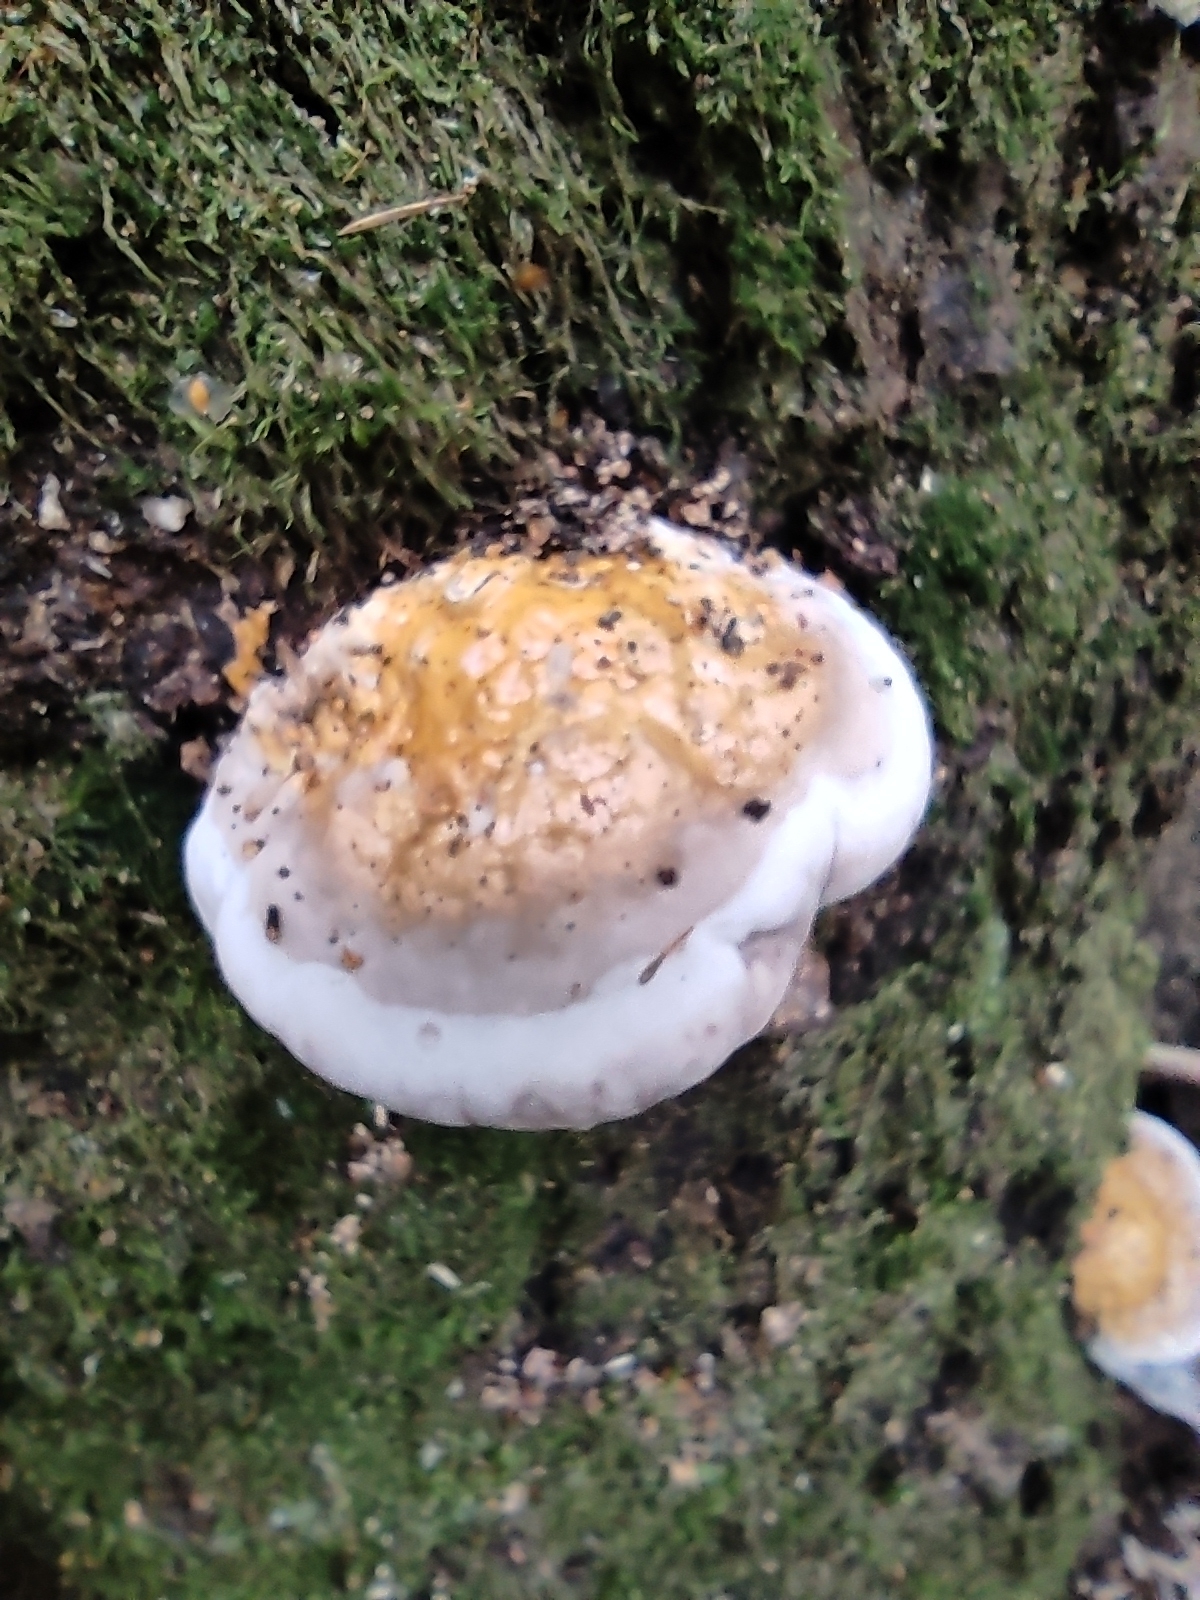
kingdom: Fungi
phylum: Basidiomycota
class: Agaricomycetes
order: Polyporales
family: Fomitopsidaceae
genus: Fomitopsis
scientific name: Fomitopsis pinicola
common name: Red-belted bracket
